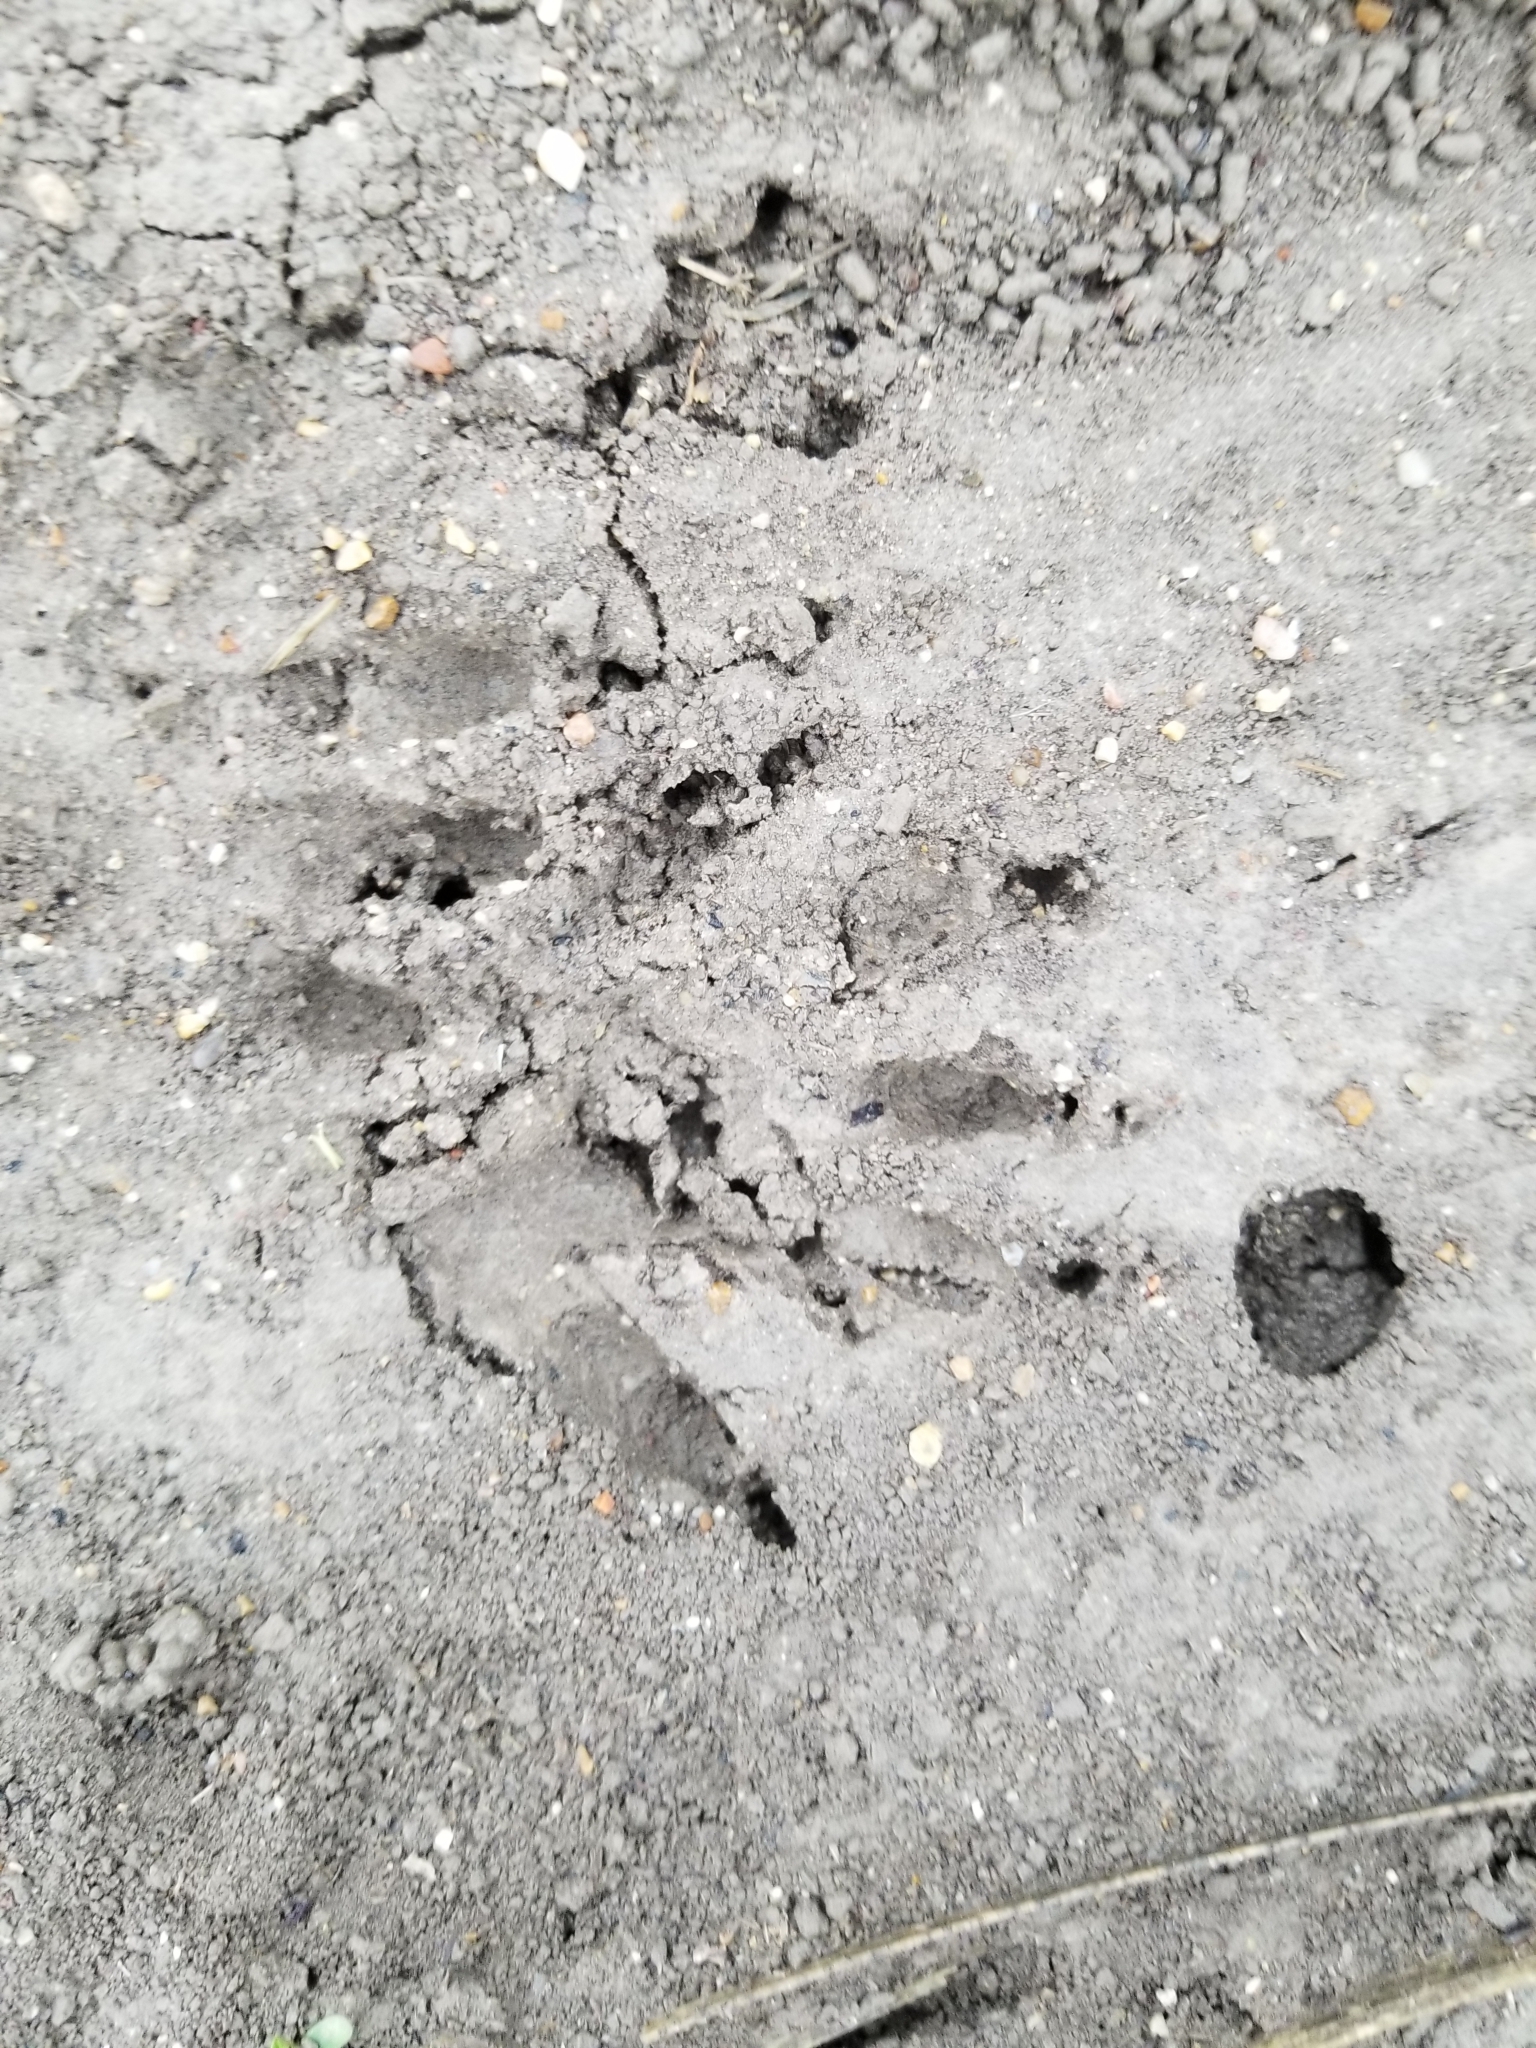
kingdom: Animalia
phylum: Chordata
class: Mammalia
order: Carnivora
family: Procyonidae
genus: Procyon
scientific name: Procyon lotor
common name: Raccoon
